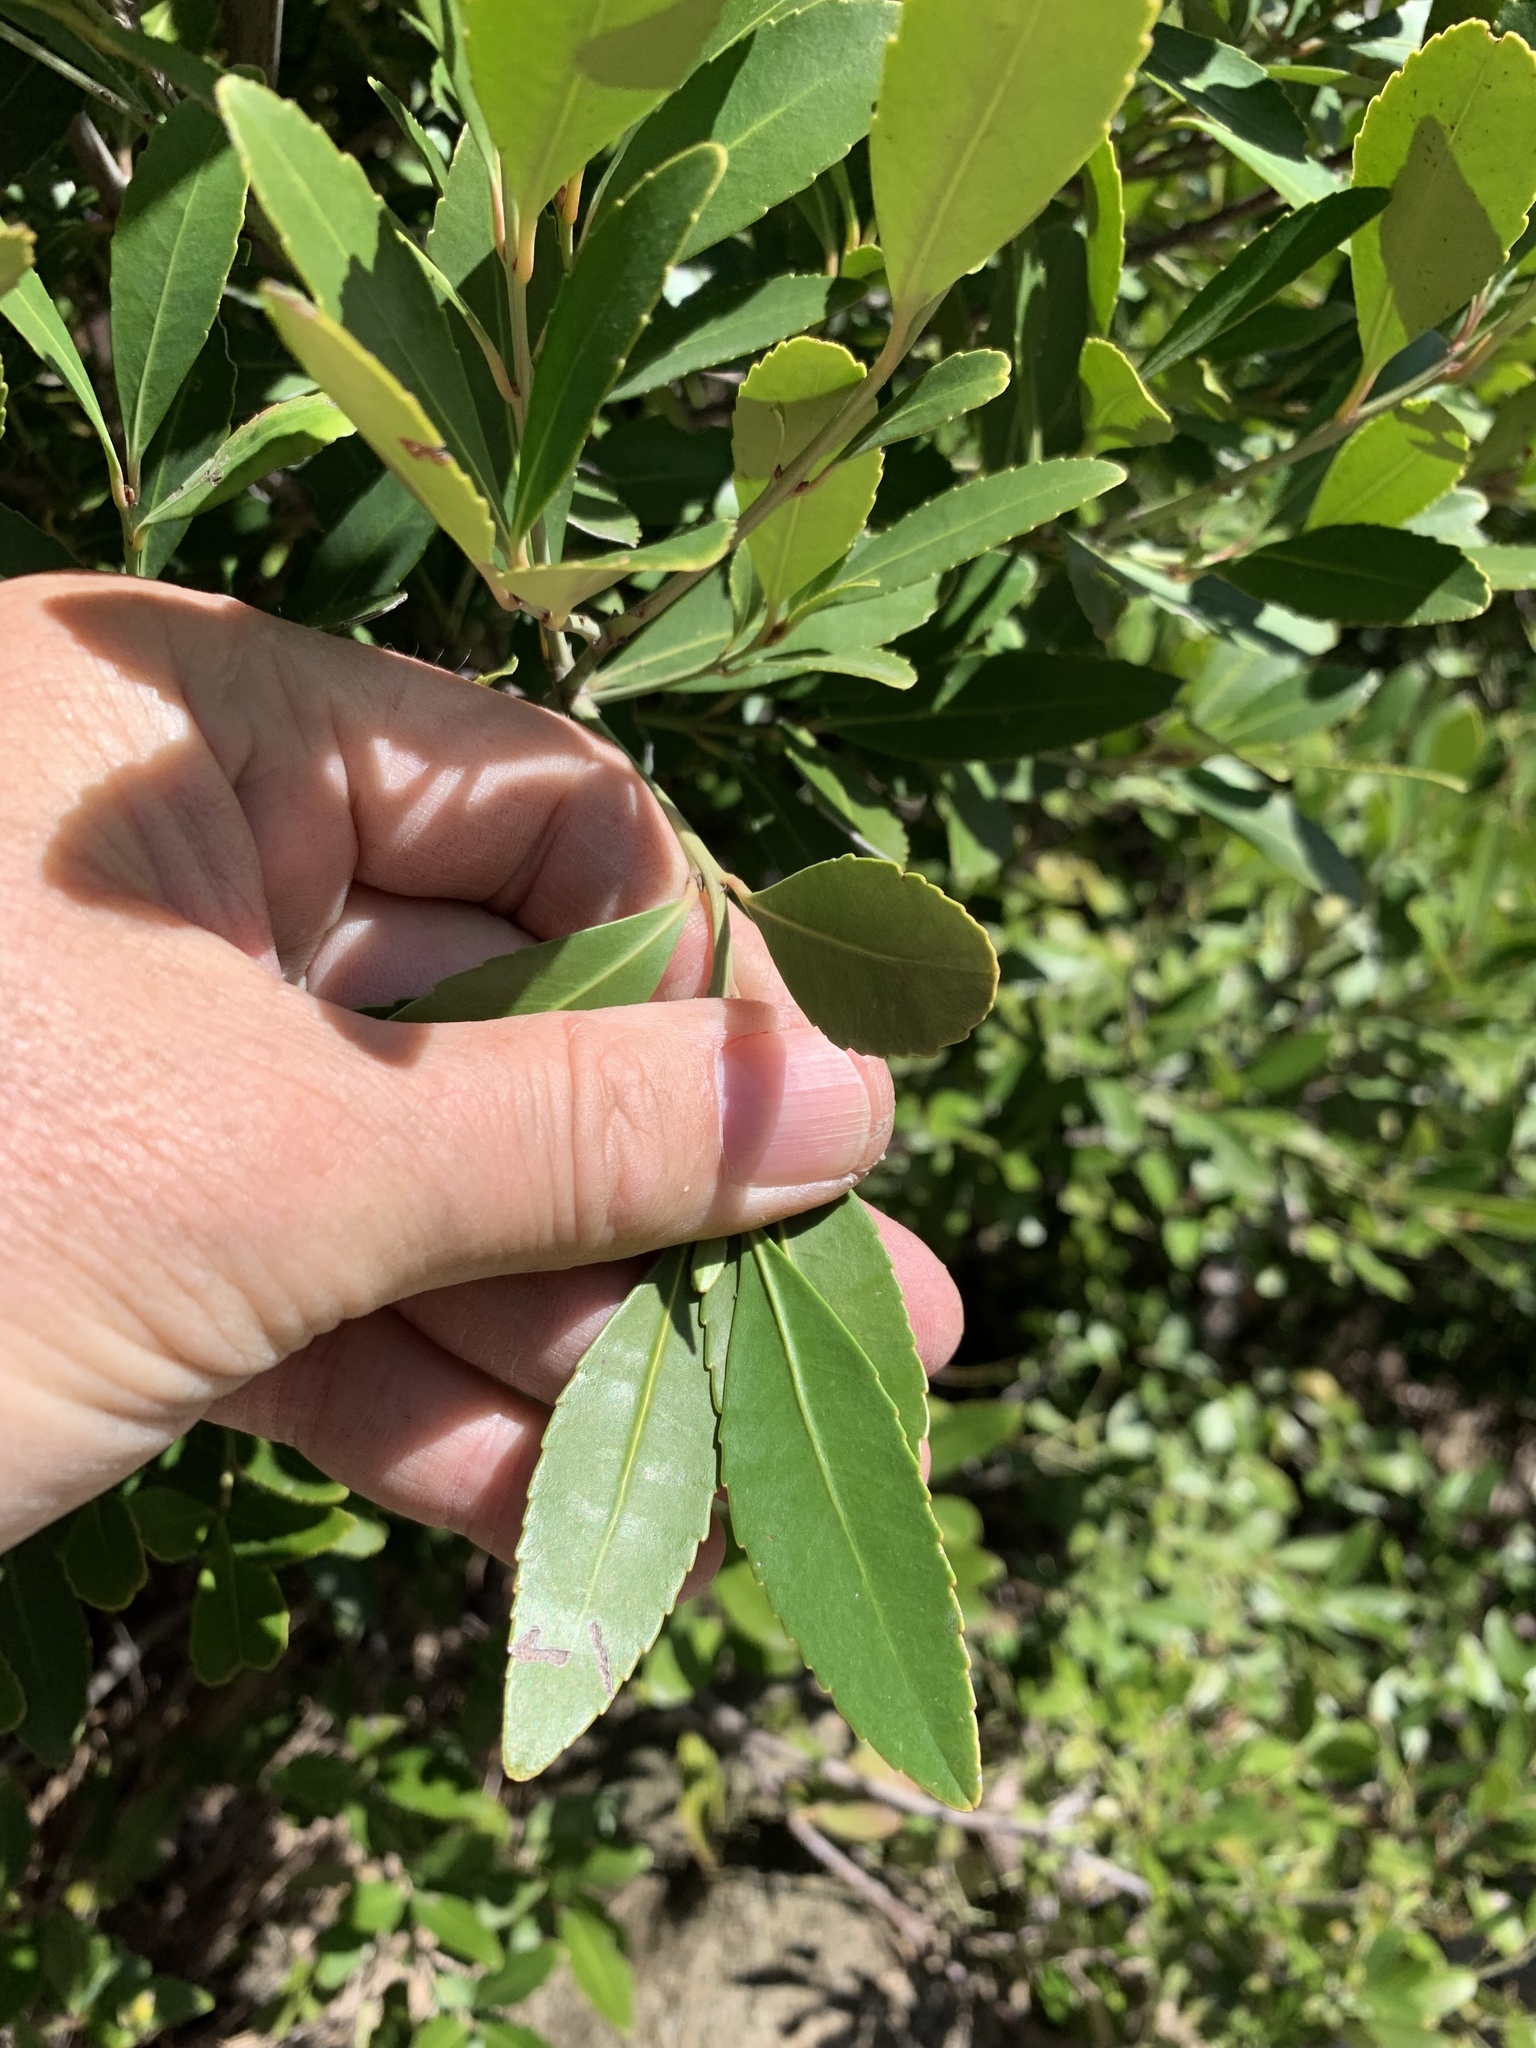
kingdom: Plantae
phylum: Tracheophyta
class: Magnoliopsida
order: Celastrales
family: Celastraceae
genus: Elaeodendron
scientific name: Elaeodendron schinoides
